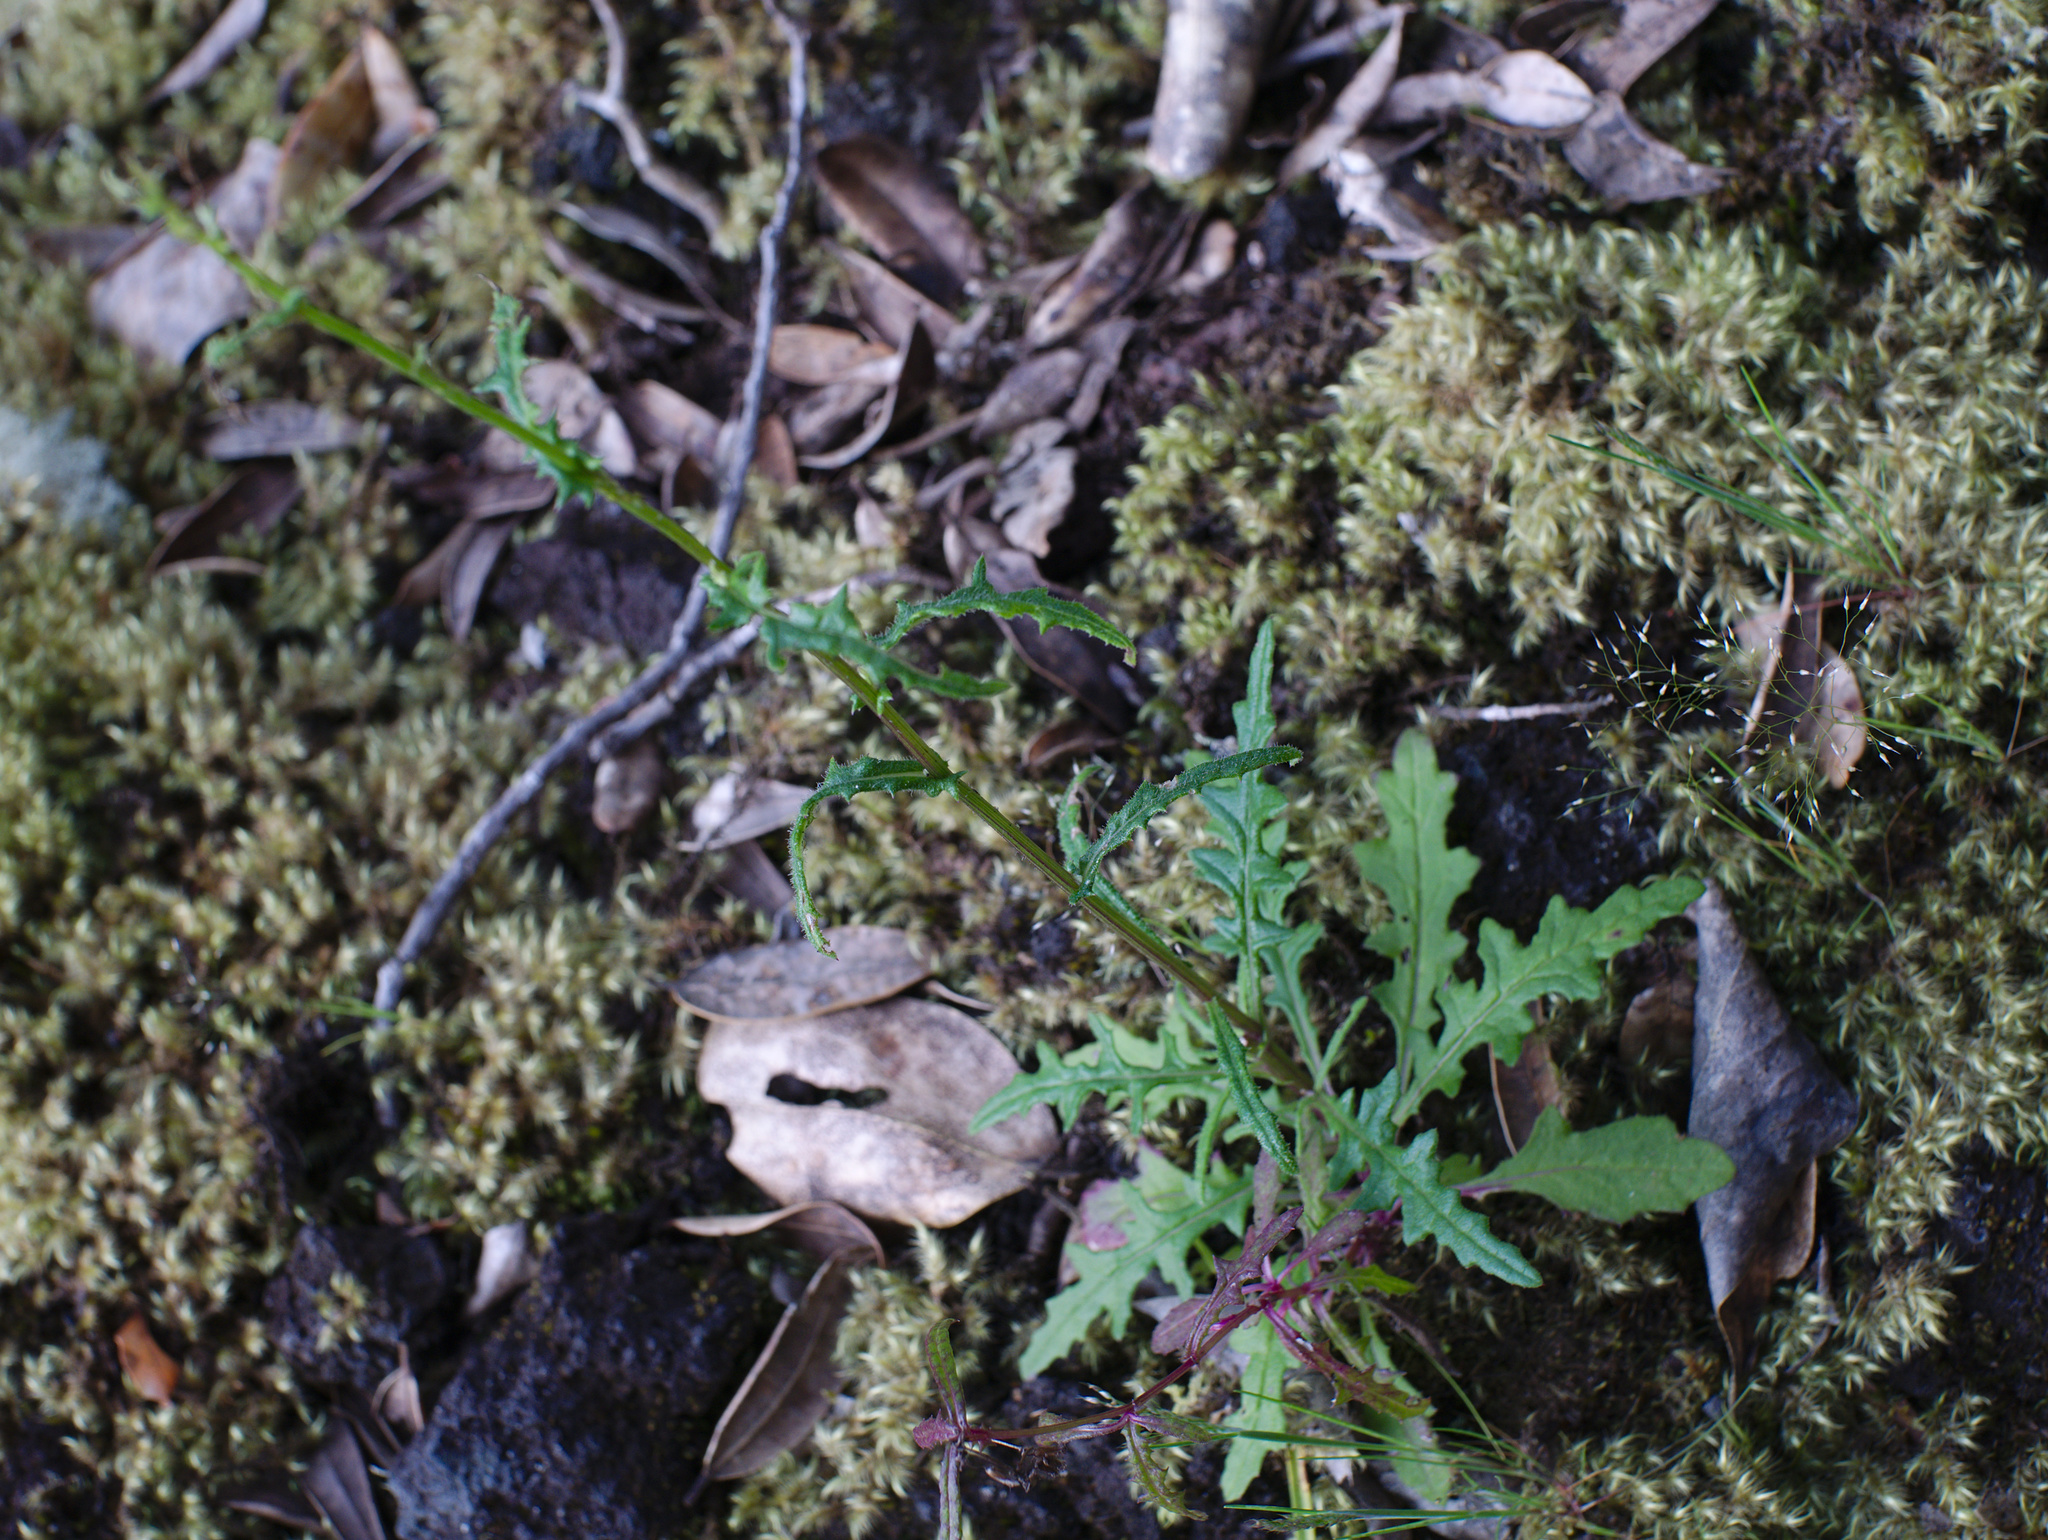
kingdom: Plantae
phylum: Tracheophyta
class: Magnoliopsida
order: Asterales
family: Asteraceae
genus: Senecio
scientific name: Senecio hispidulus
